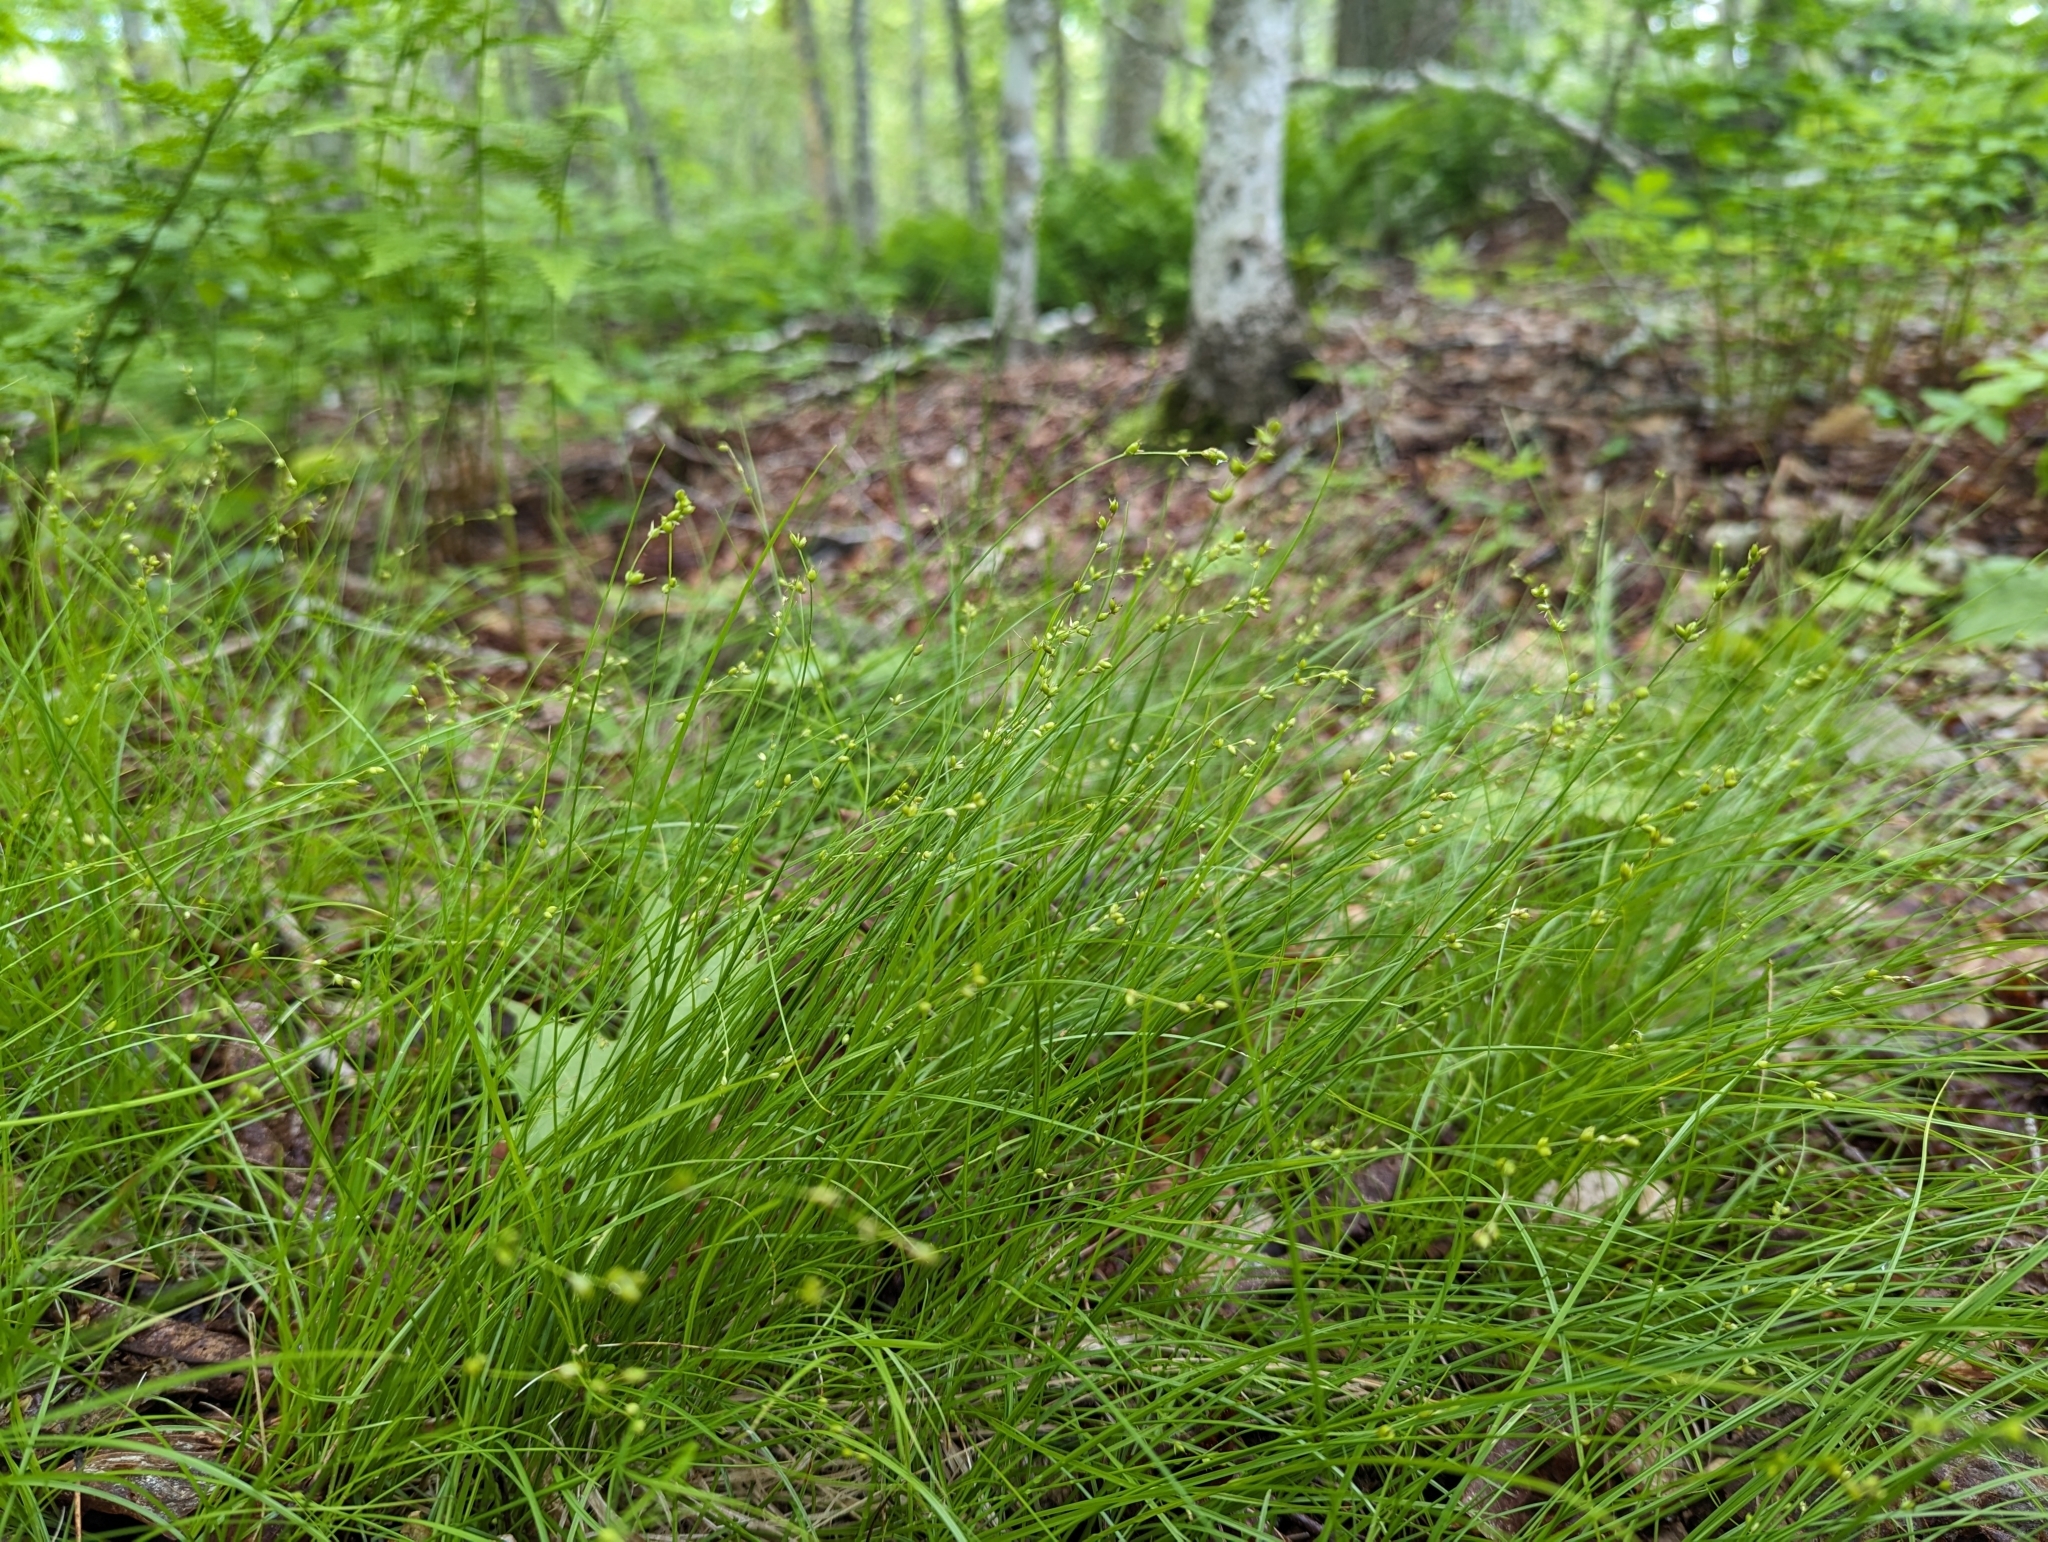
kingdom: Plantae
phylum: Tracheophyta
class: Liliopsida
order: Poales
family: Cyperaceae
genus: Carex
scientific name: Carex disperma
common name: Short-leaved sedge
